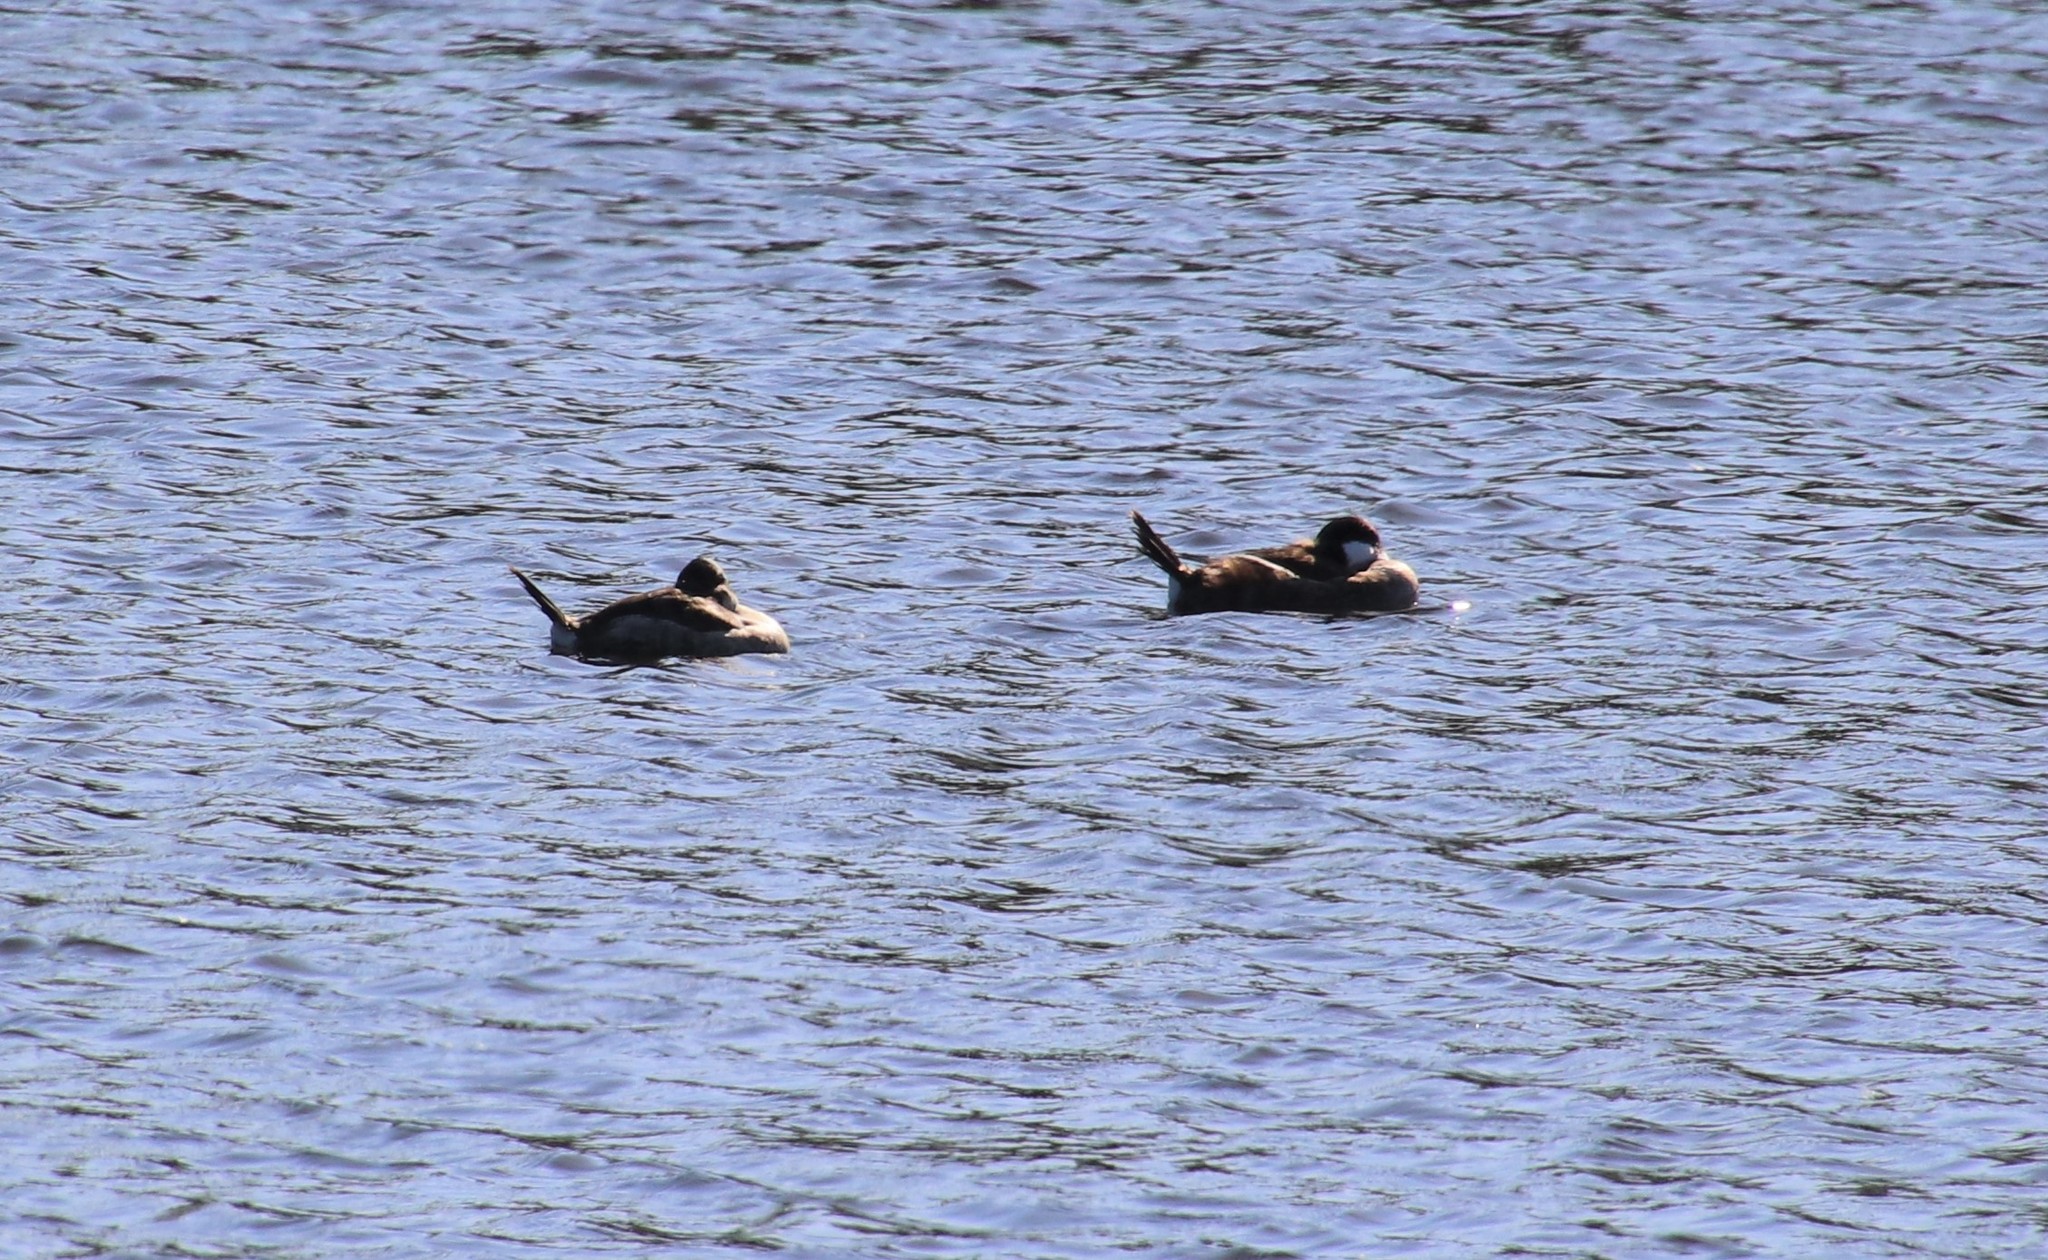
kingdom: Animalia
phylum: Chordata
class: Aves
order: Anseriformes
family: Anatidae
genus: Oxyura
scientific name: Oxyura jamaicensis
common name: Ruddy duck
